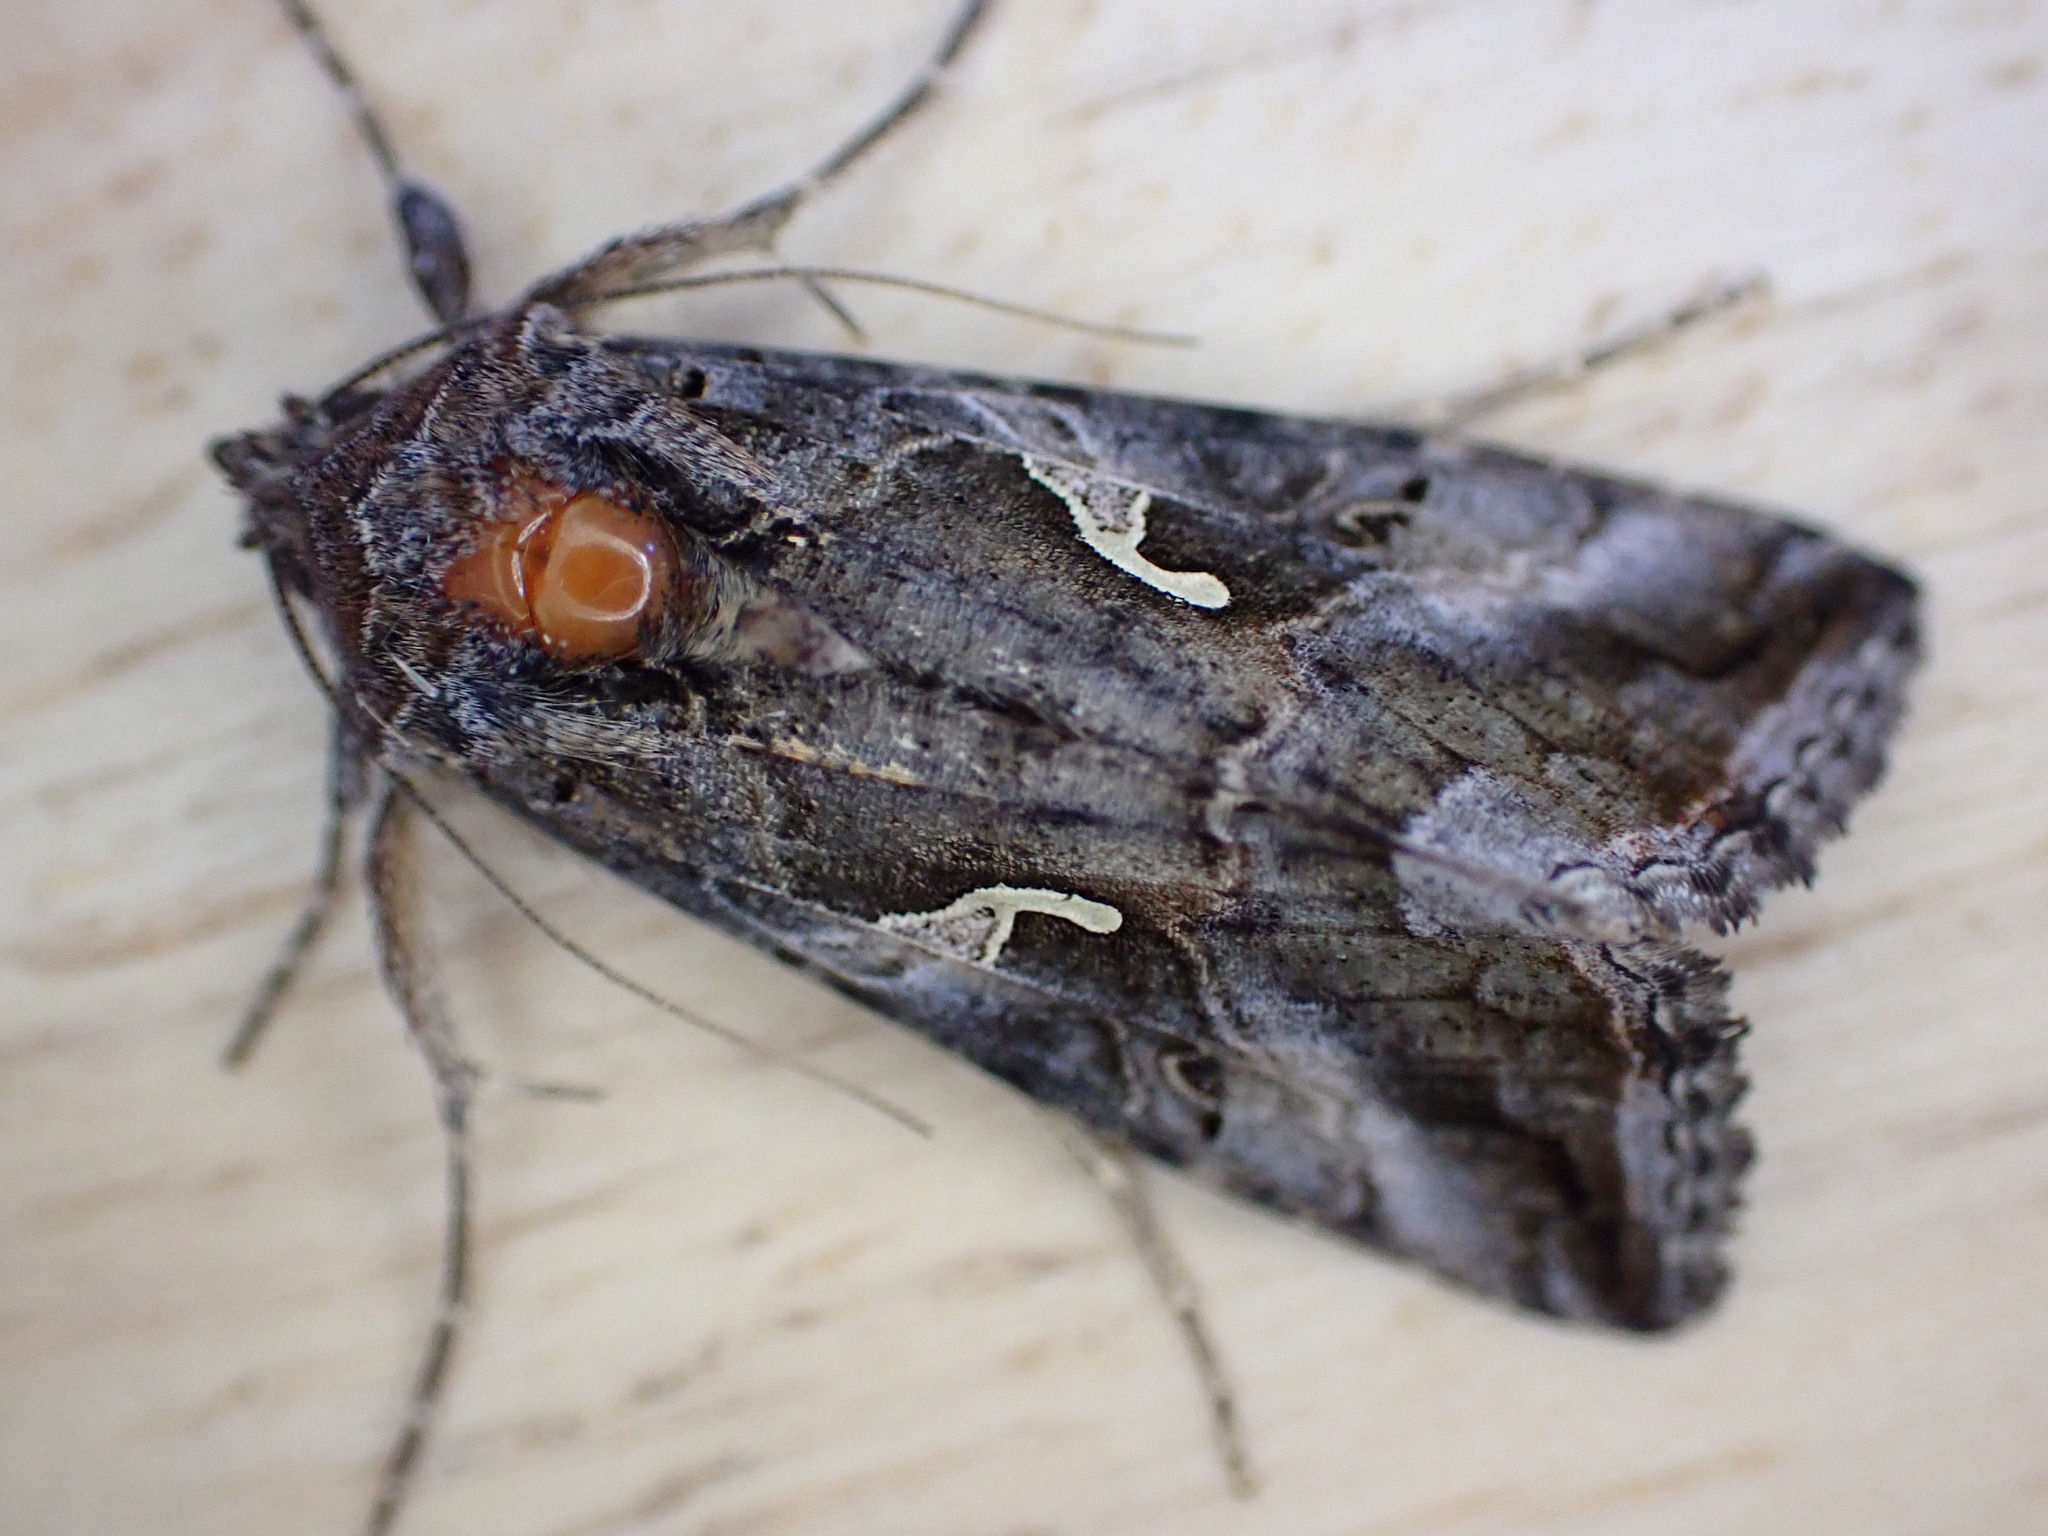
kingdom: Animalia
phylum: Arthropoda
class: Insecta
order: Lepidoptera
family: Noctuidae
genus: Autographa
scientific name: Autographa gamma
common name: Silver y
